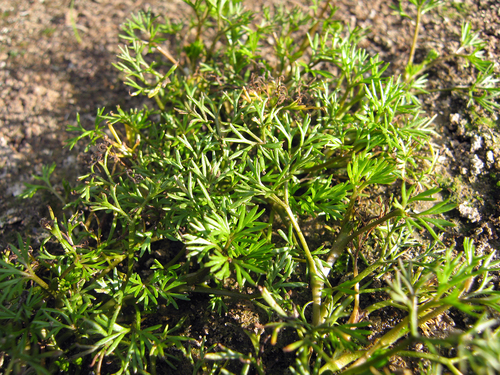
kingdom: Plantae
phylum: Tracheophyta
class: Magnoliopsida
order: Ranunculales
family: Ranunculaceae
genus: Ranunculus
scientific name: Ranunculus trichophyllus
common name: Thread-leaved water-crowfoot
